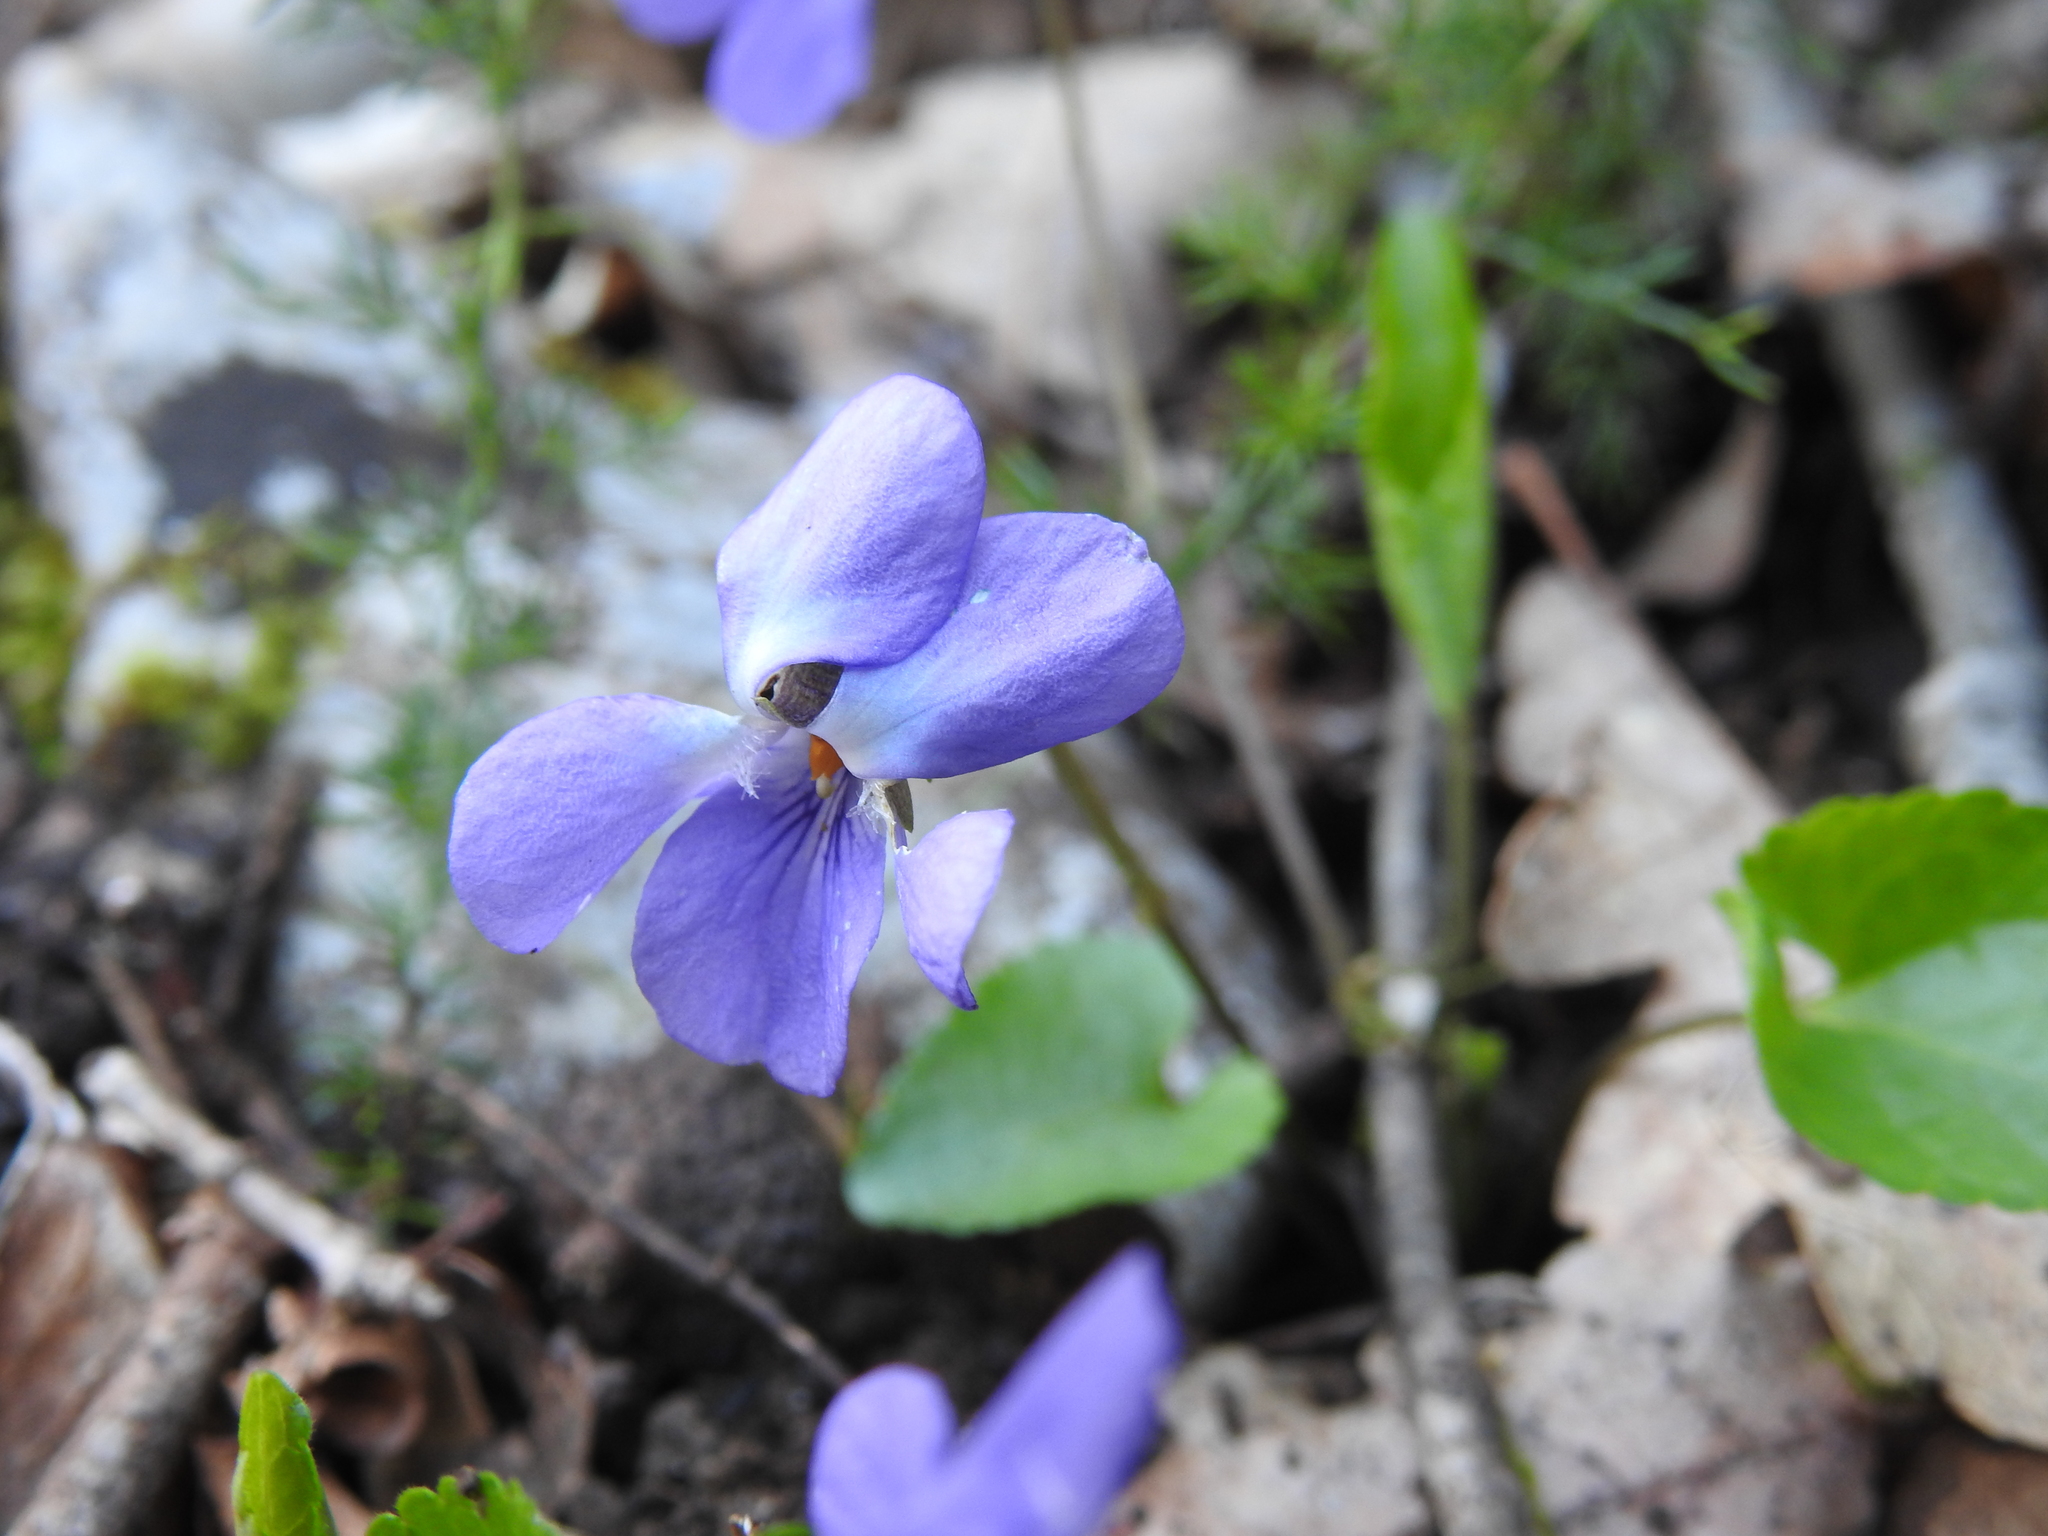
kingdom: Plantae
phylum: Tracheophyta
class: Magnoliopsida
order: Malpighiales
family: Violaceae
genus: Viola
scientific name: Viola alba
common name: White violet
